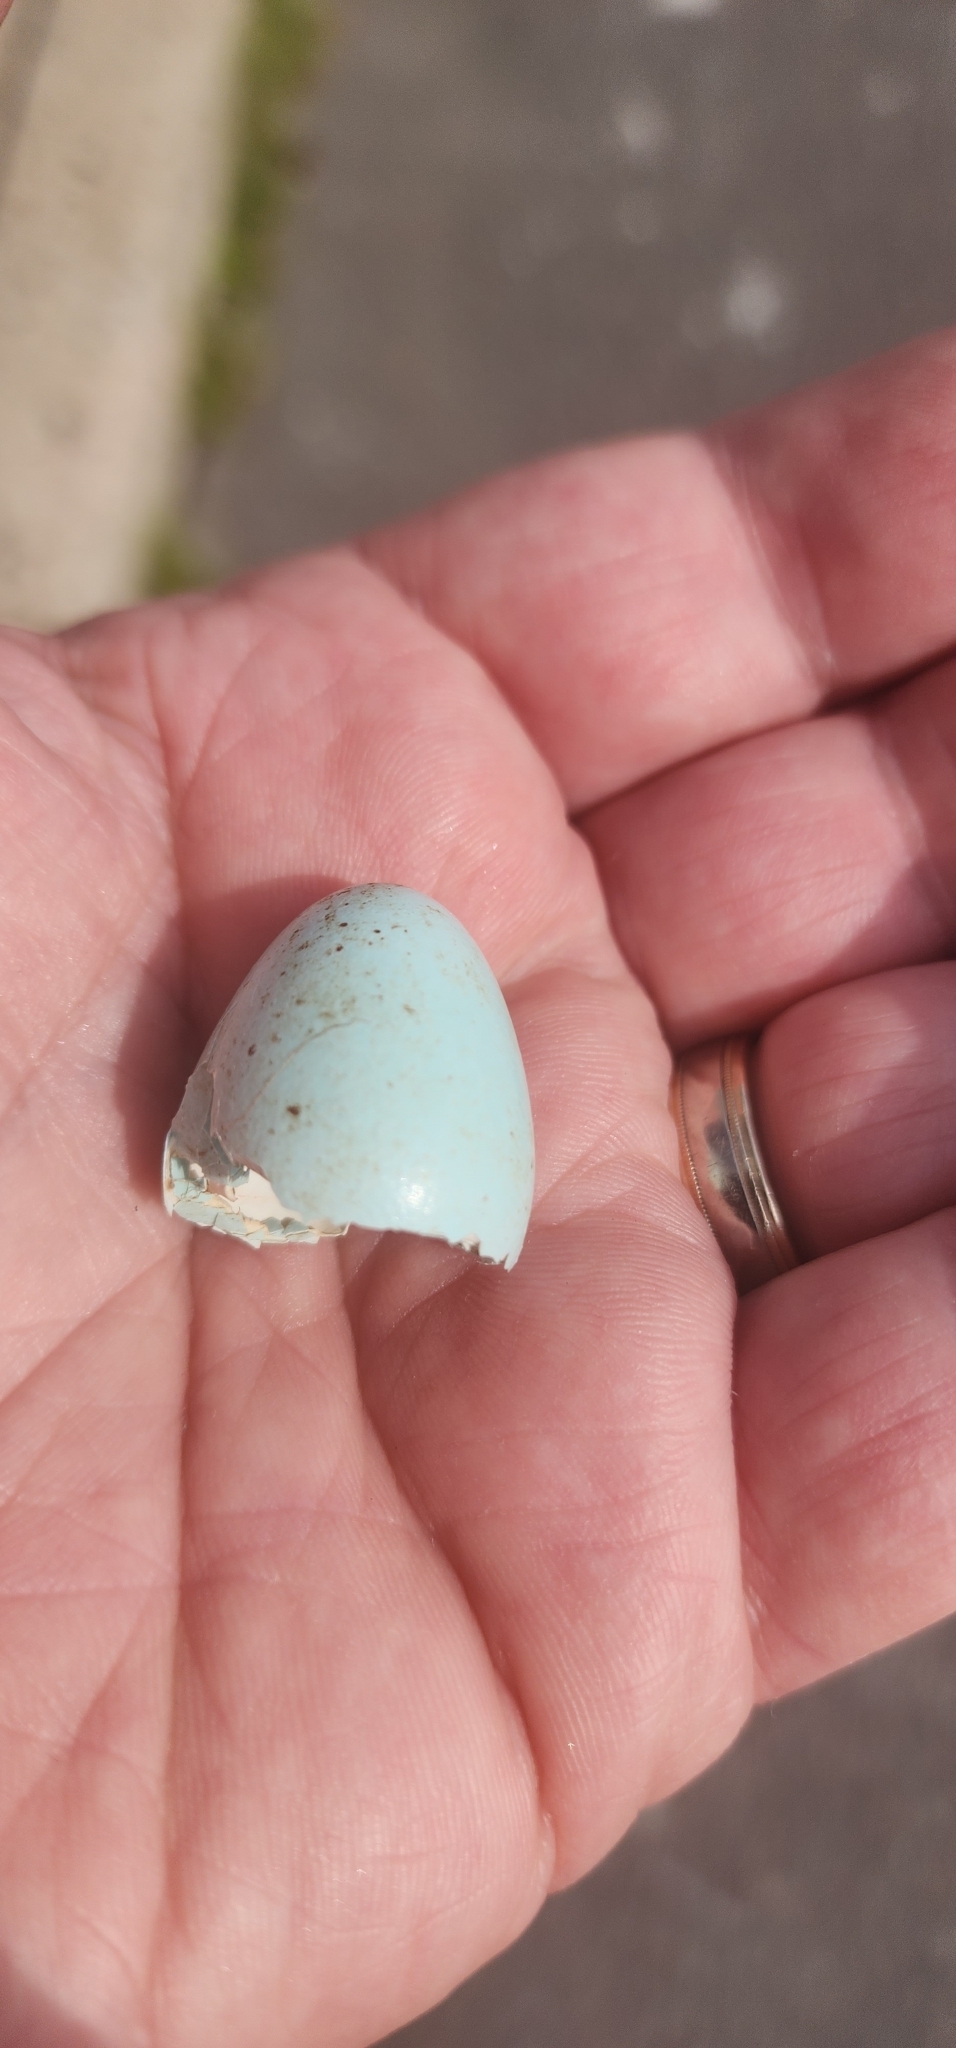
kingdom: Animalia
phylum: Chordata
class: Aves
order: Passeriformes
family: Turdidae
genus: Turdus
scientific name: Turdus migratorius
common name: American robin
